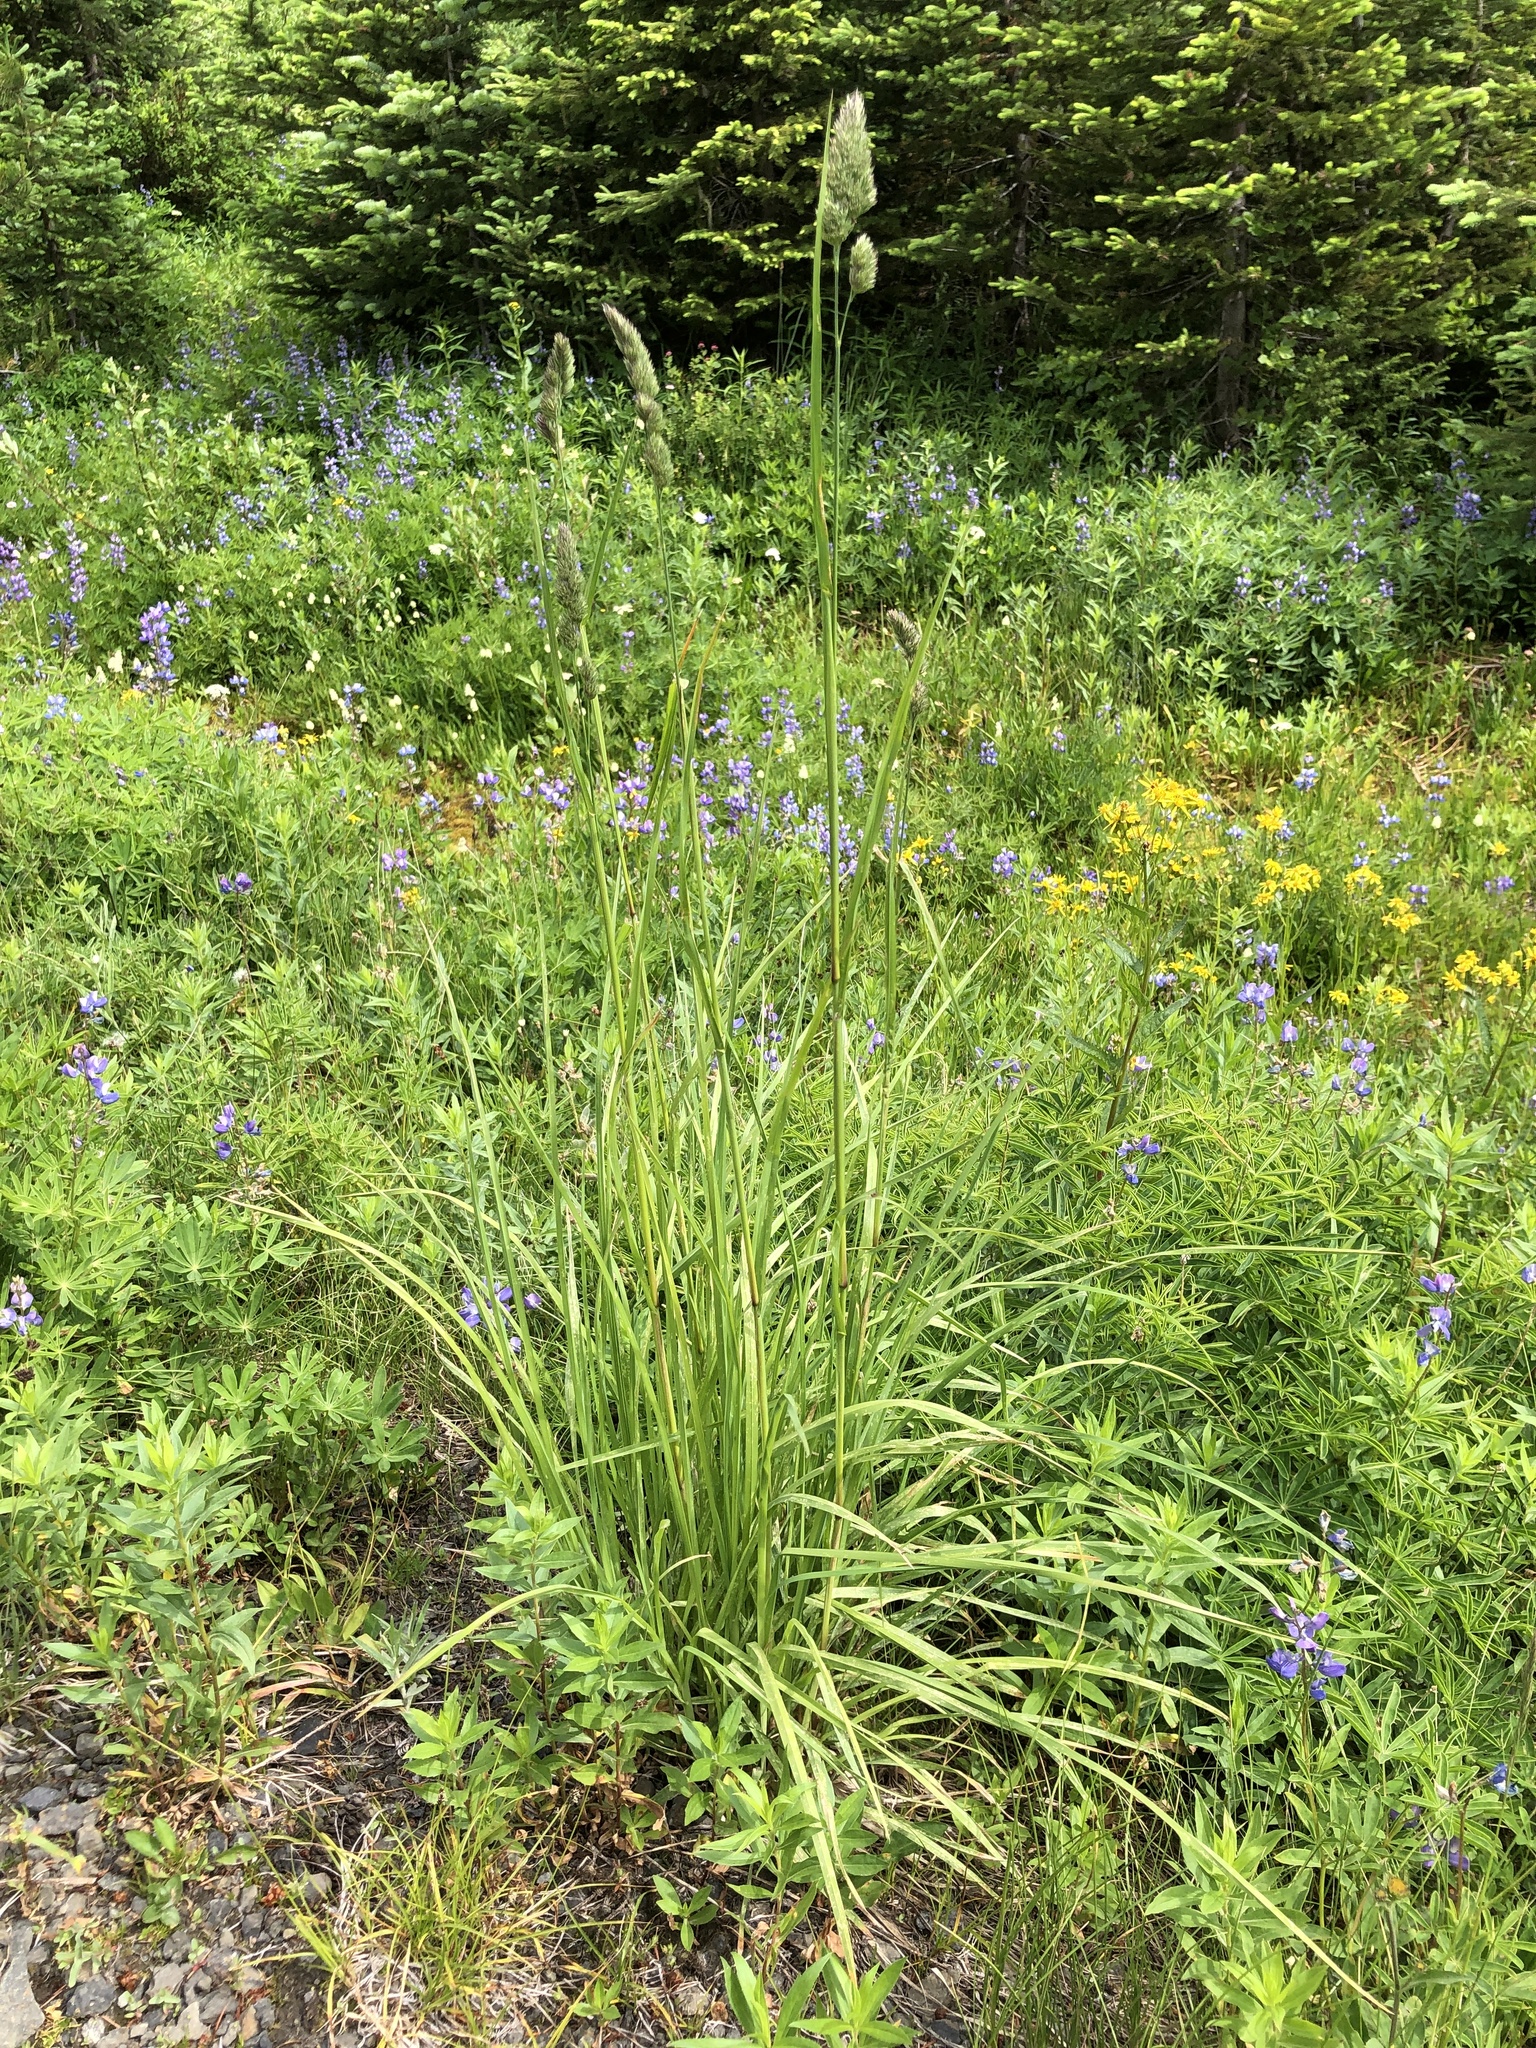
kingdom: Plantae
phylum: Tracheophyta
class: Liliopsida
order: Poales
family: Poaceae
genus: Dactylis
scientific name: Dactylis glomerata
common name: Orchardgrass
